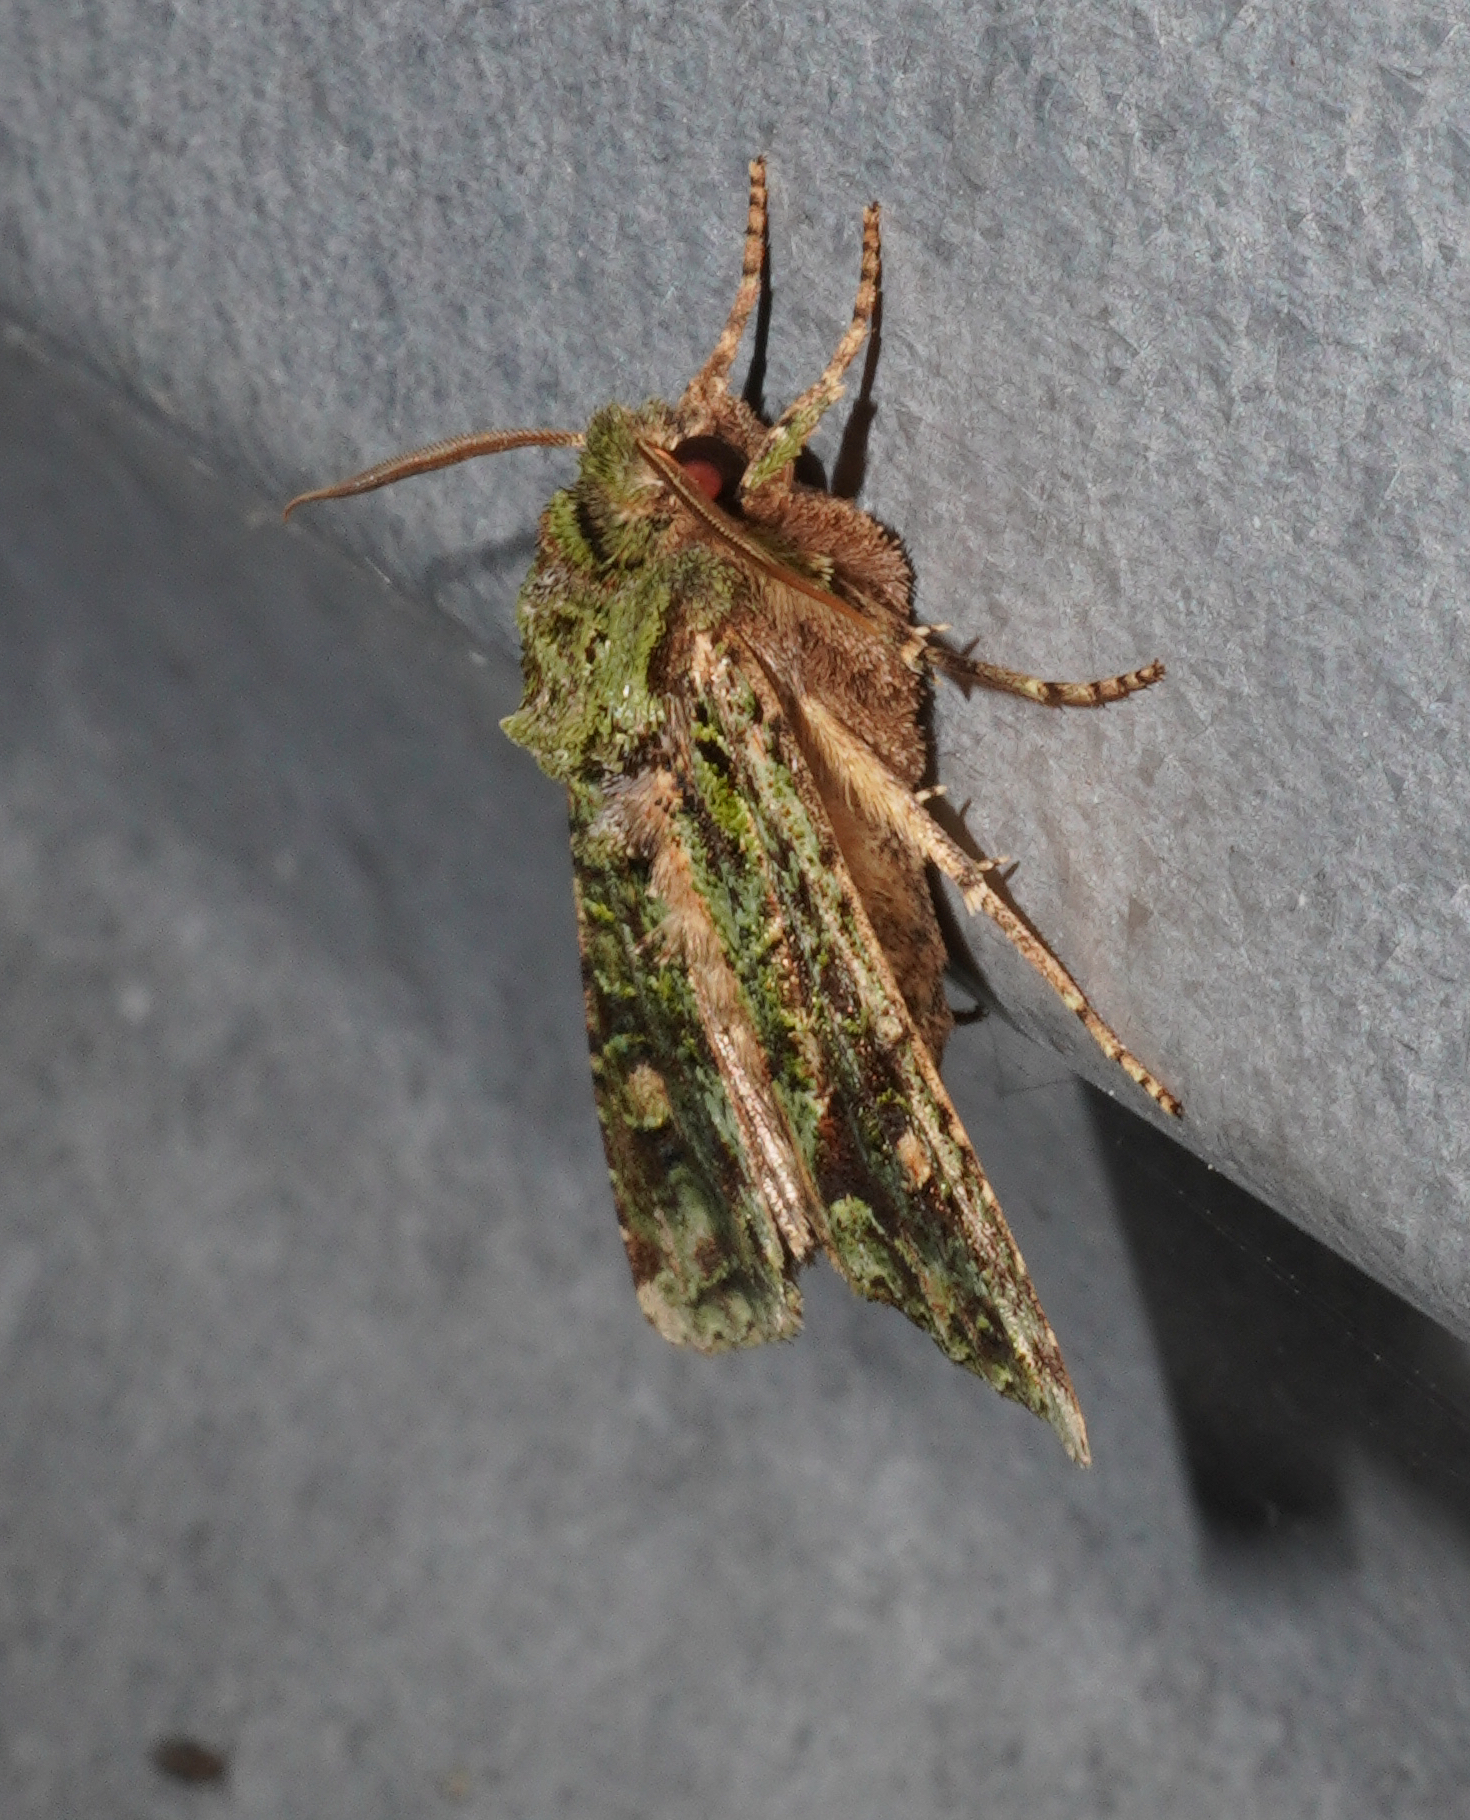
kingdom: Animalia
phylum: Arthropoda
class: Insecta
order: Lepidoptera
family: Noctuidae
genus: Ichneutica
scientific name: Ichneutica
